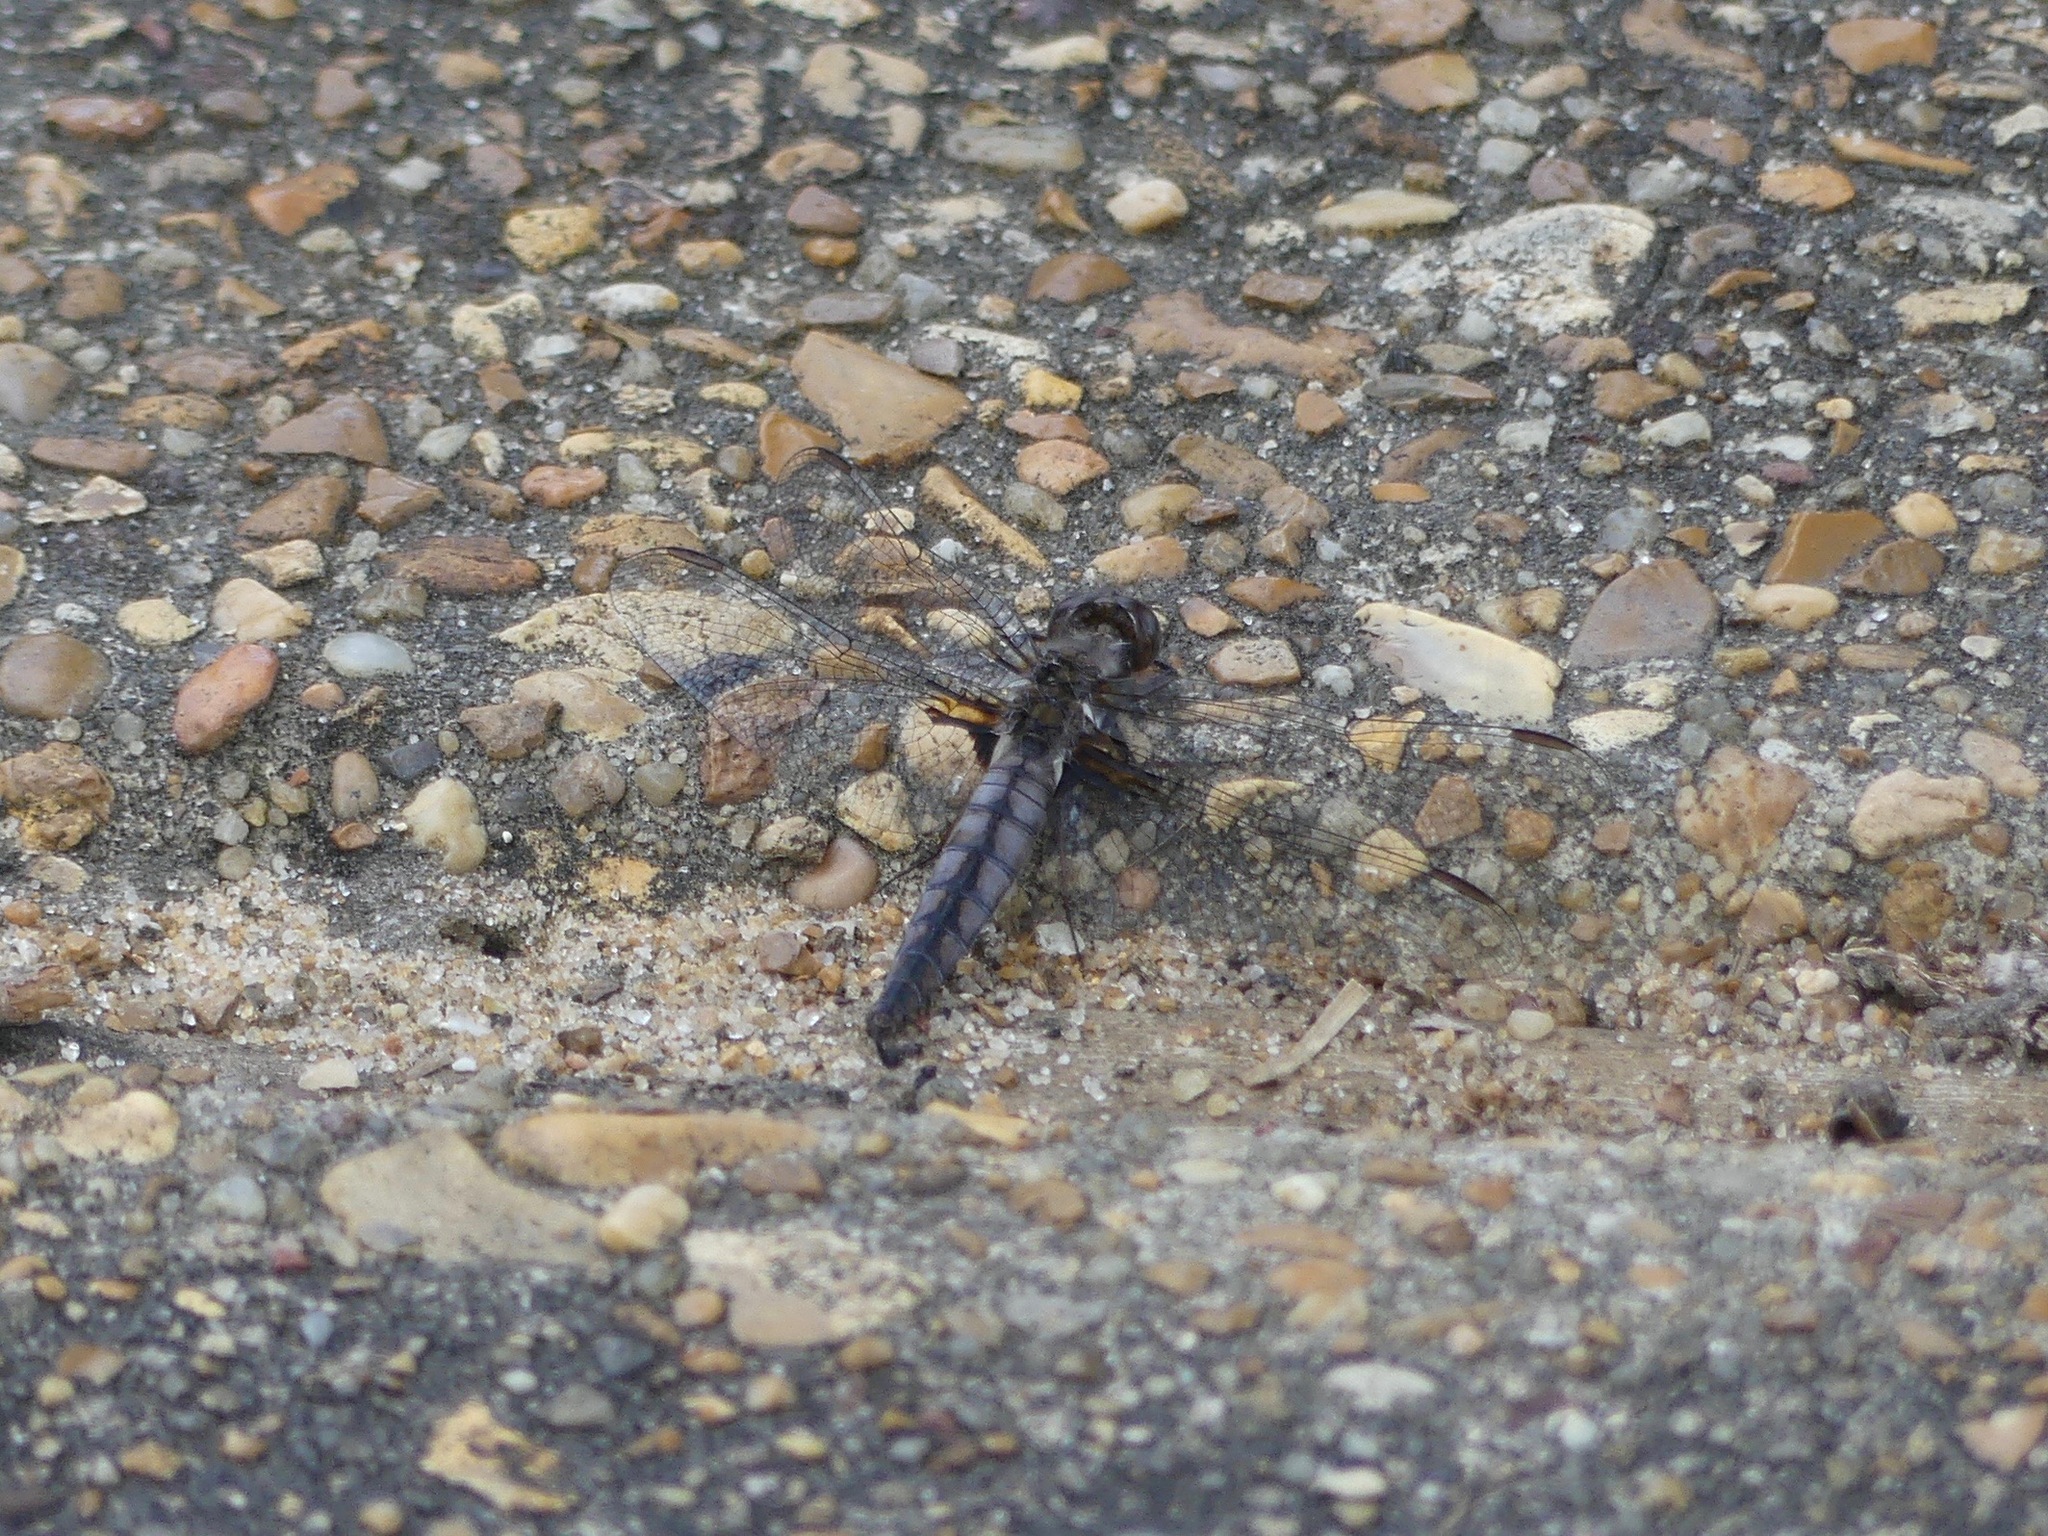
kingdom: Animalia
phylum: Arthropoda
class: Insecta
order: Odonata
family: Libellulidae
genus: Ladona
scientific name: Ladona deplanata
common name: Blue corporal
